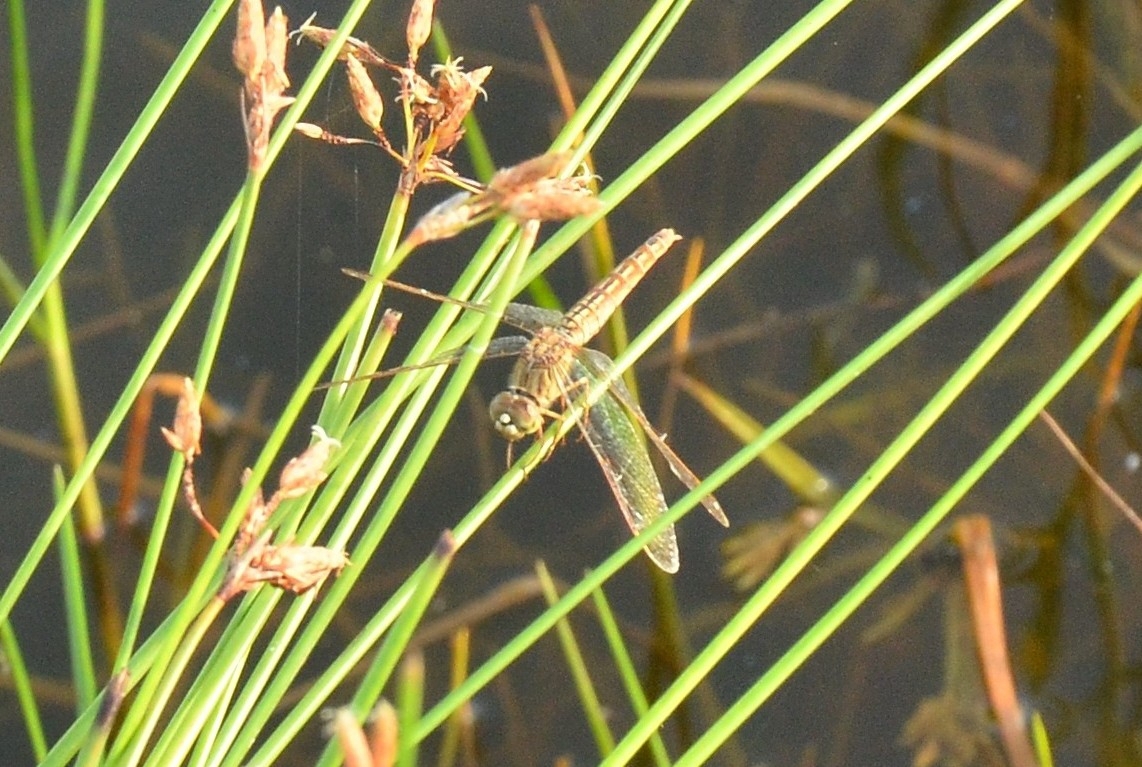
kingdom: Animalia
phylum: Arthropoda
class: Insecta
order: Odonata
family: Libellulidae
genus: Brachythemis
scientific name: Brachythemis contaminata
